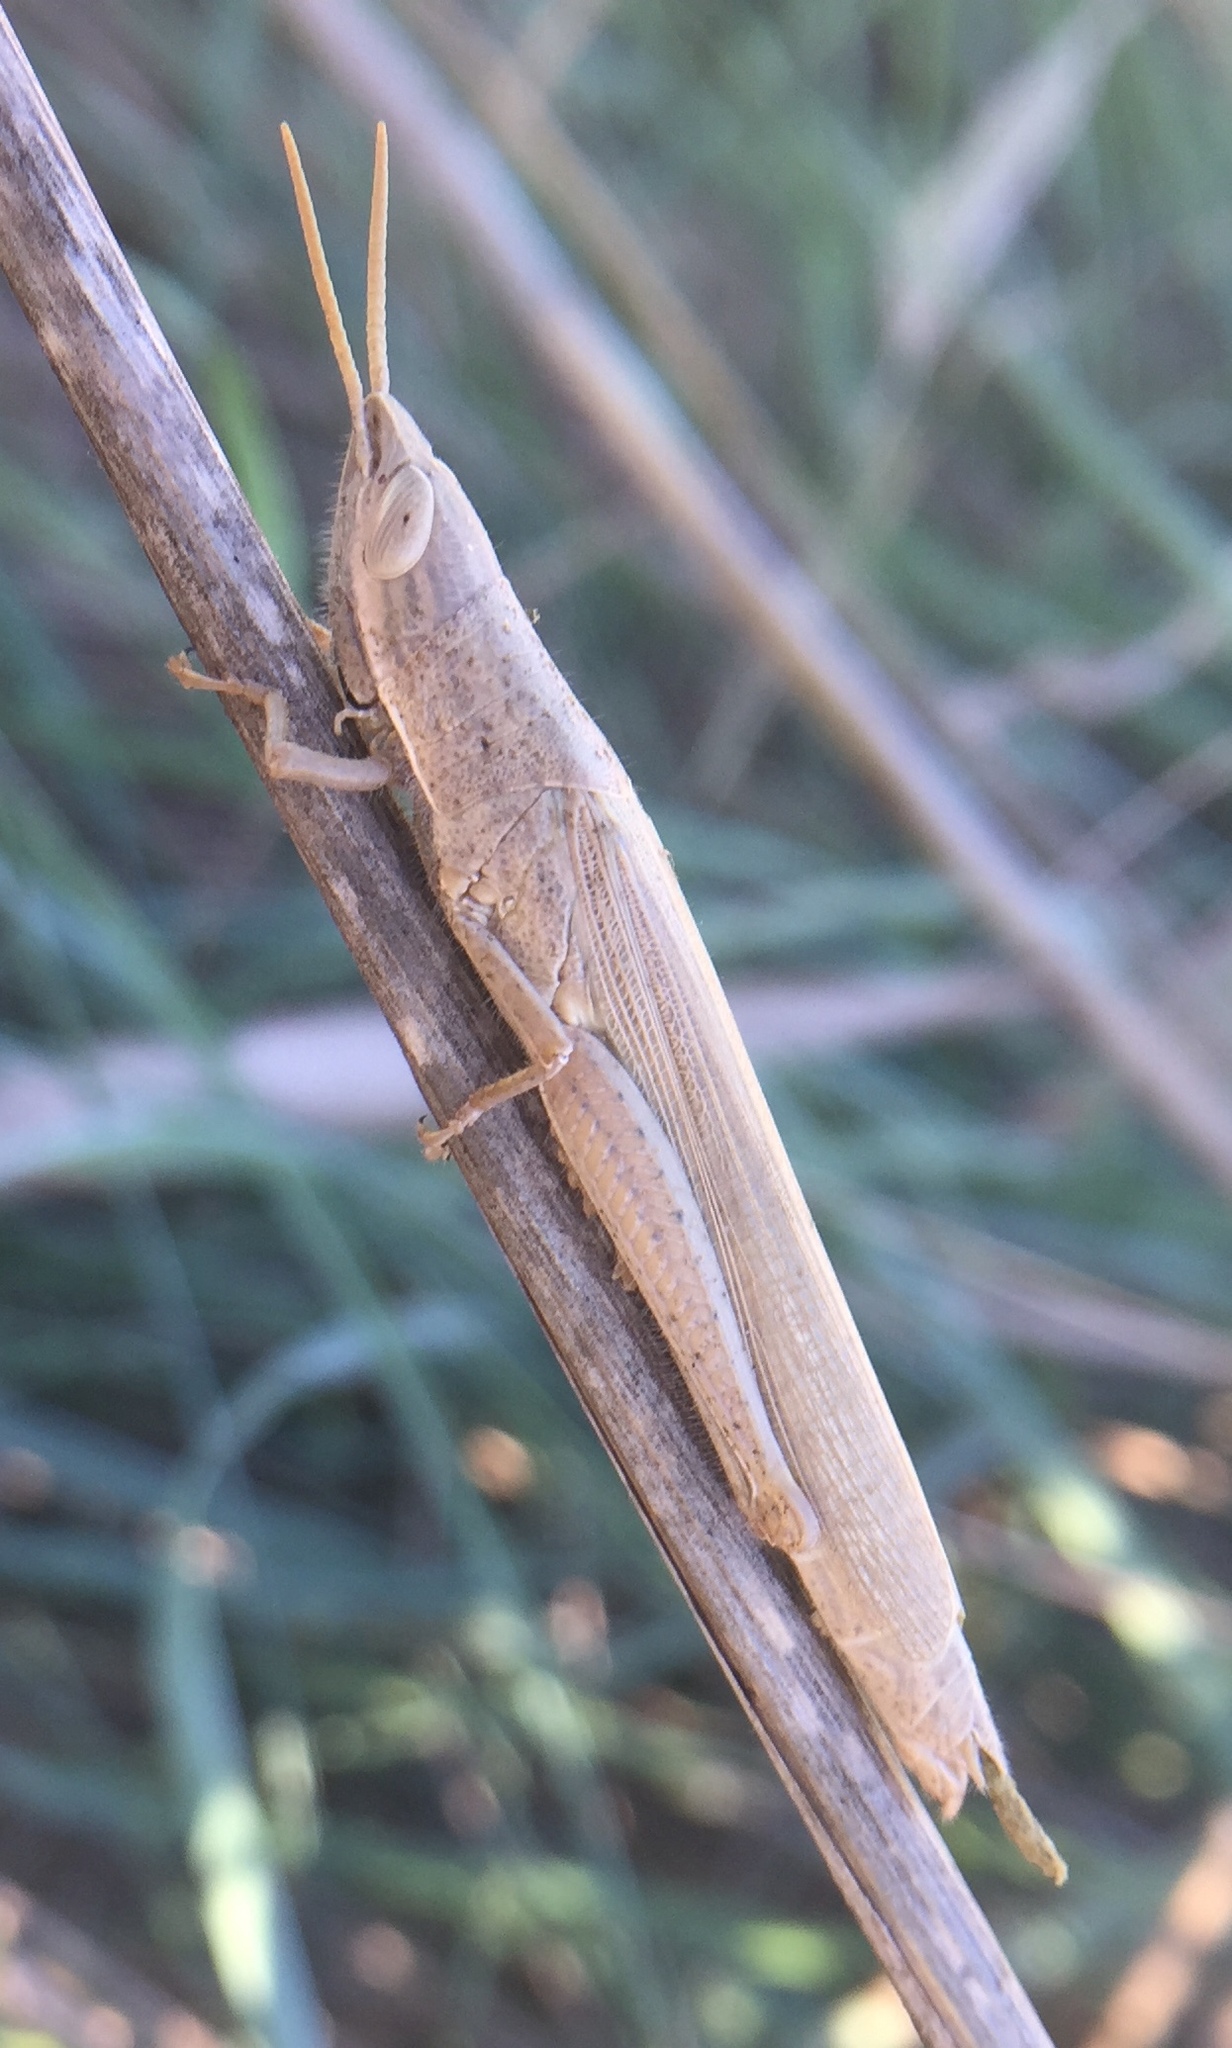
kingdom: Animalia
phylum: Arthropoda
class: Insecta
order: Orthoptera
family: Acrididae
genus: Tropidopola
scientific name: Tropidopola graeca
